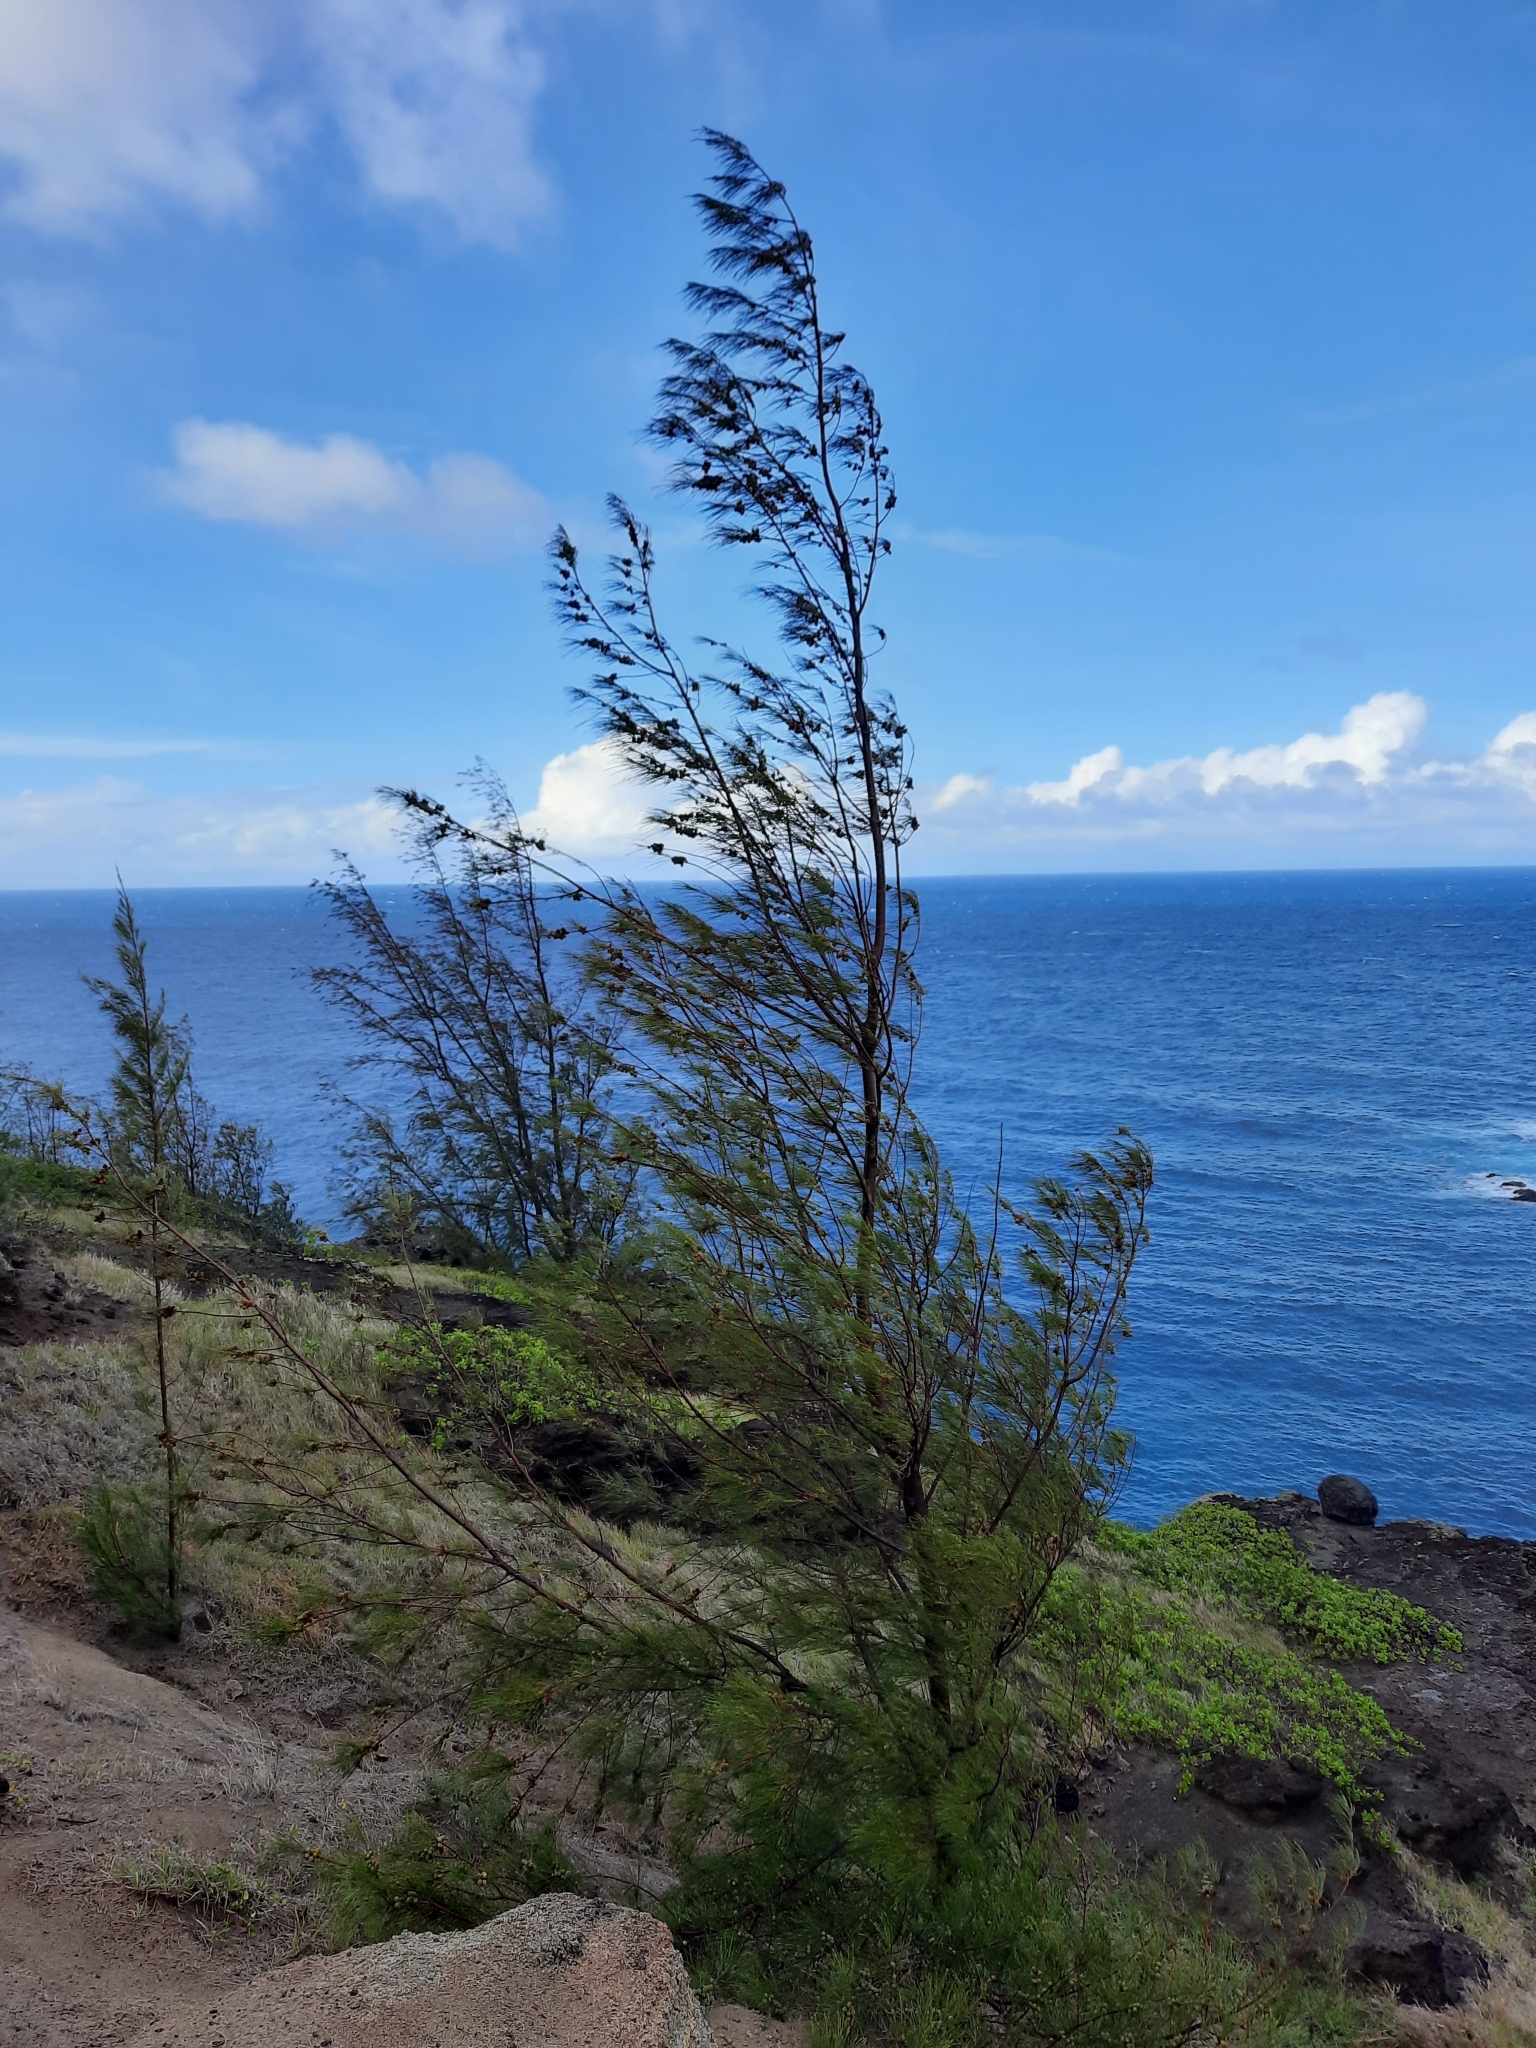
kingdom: Plantae
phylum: Tracheophyta
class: Magnoliopsida
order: Fagales
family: Casuarinaceae
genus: Casuarina
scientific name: Casuarina equisetifolia
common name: Beach sheoak
